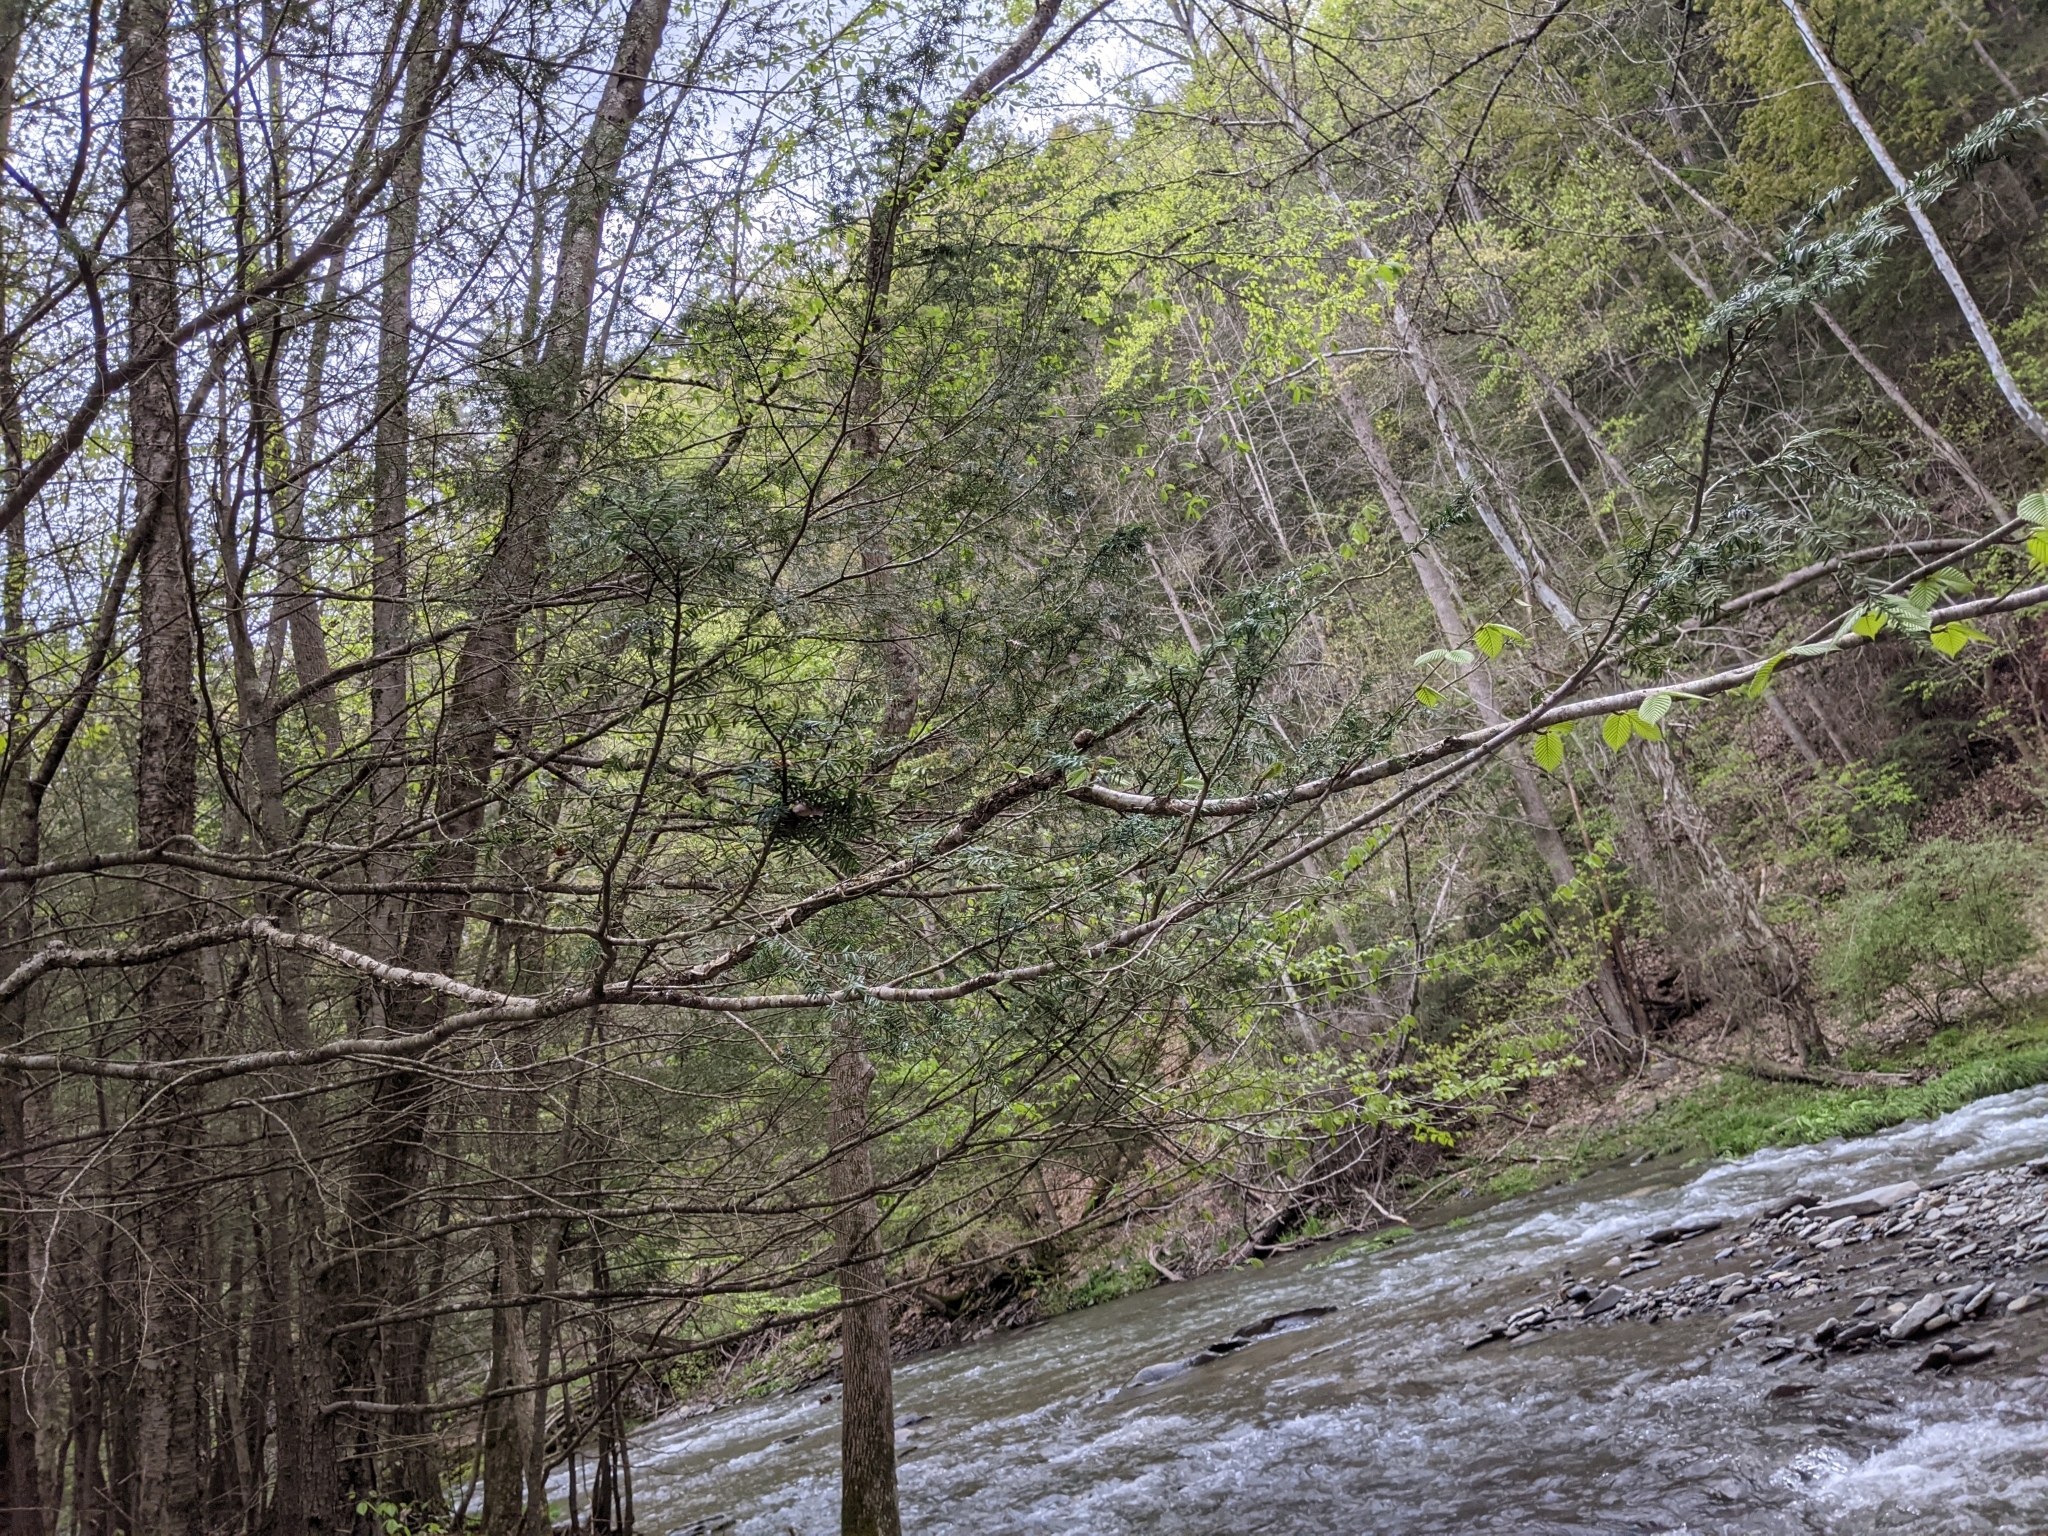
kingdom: Animalia
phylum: Arthropoda
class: Insecta
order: Hemiptera
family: Adelgidae
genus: Adelges
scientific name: Adelges tsugae
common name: Hemlock woolly adelgid
